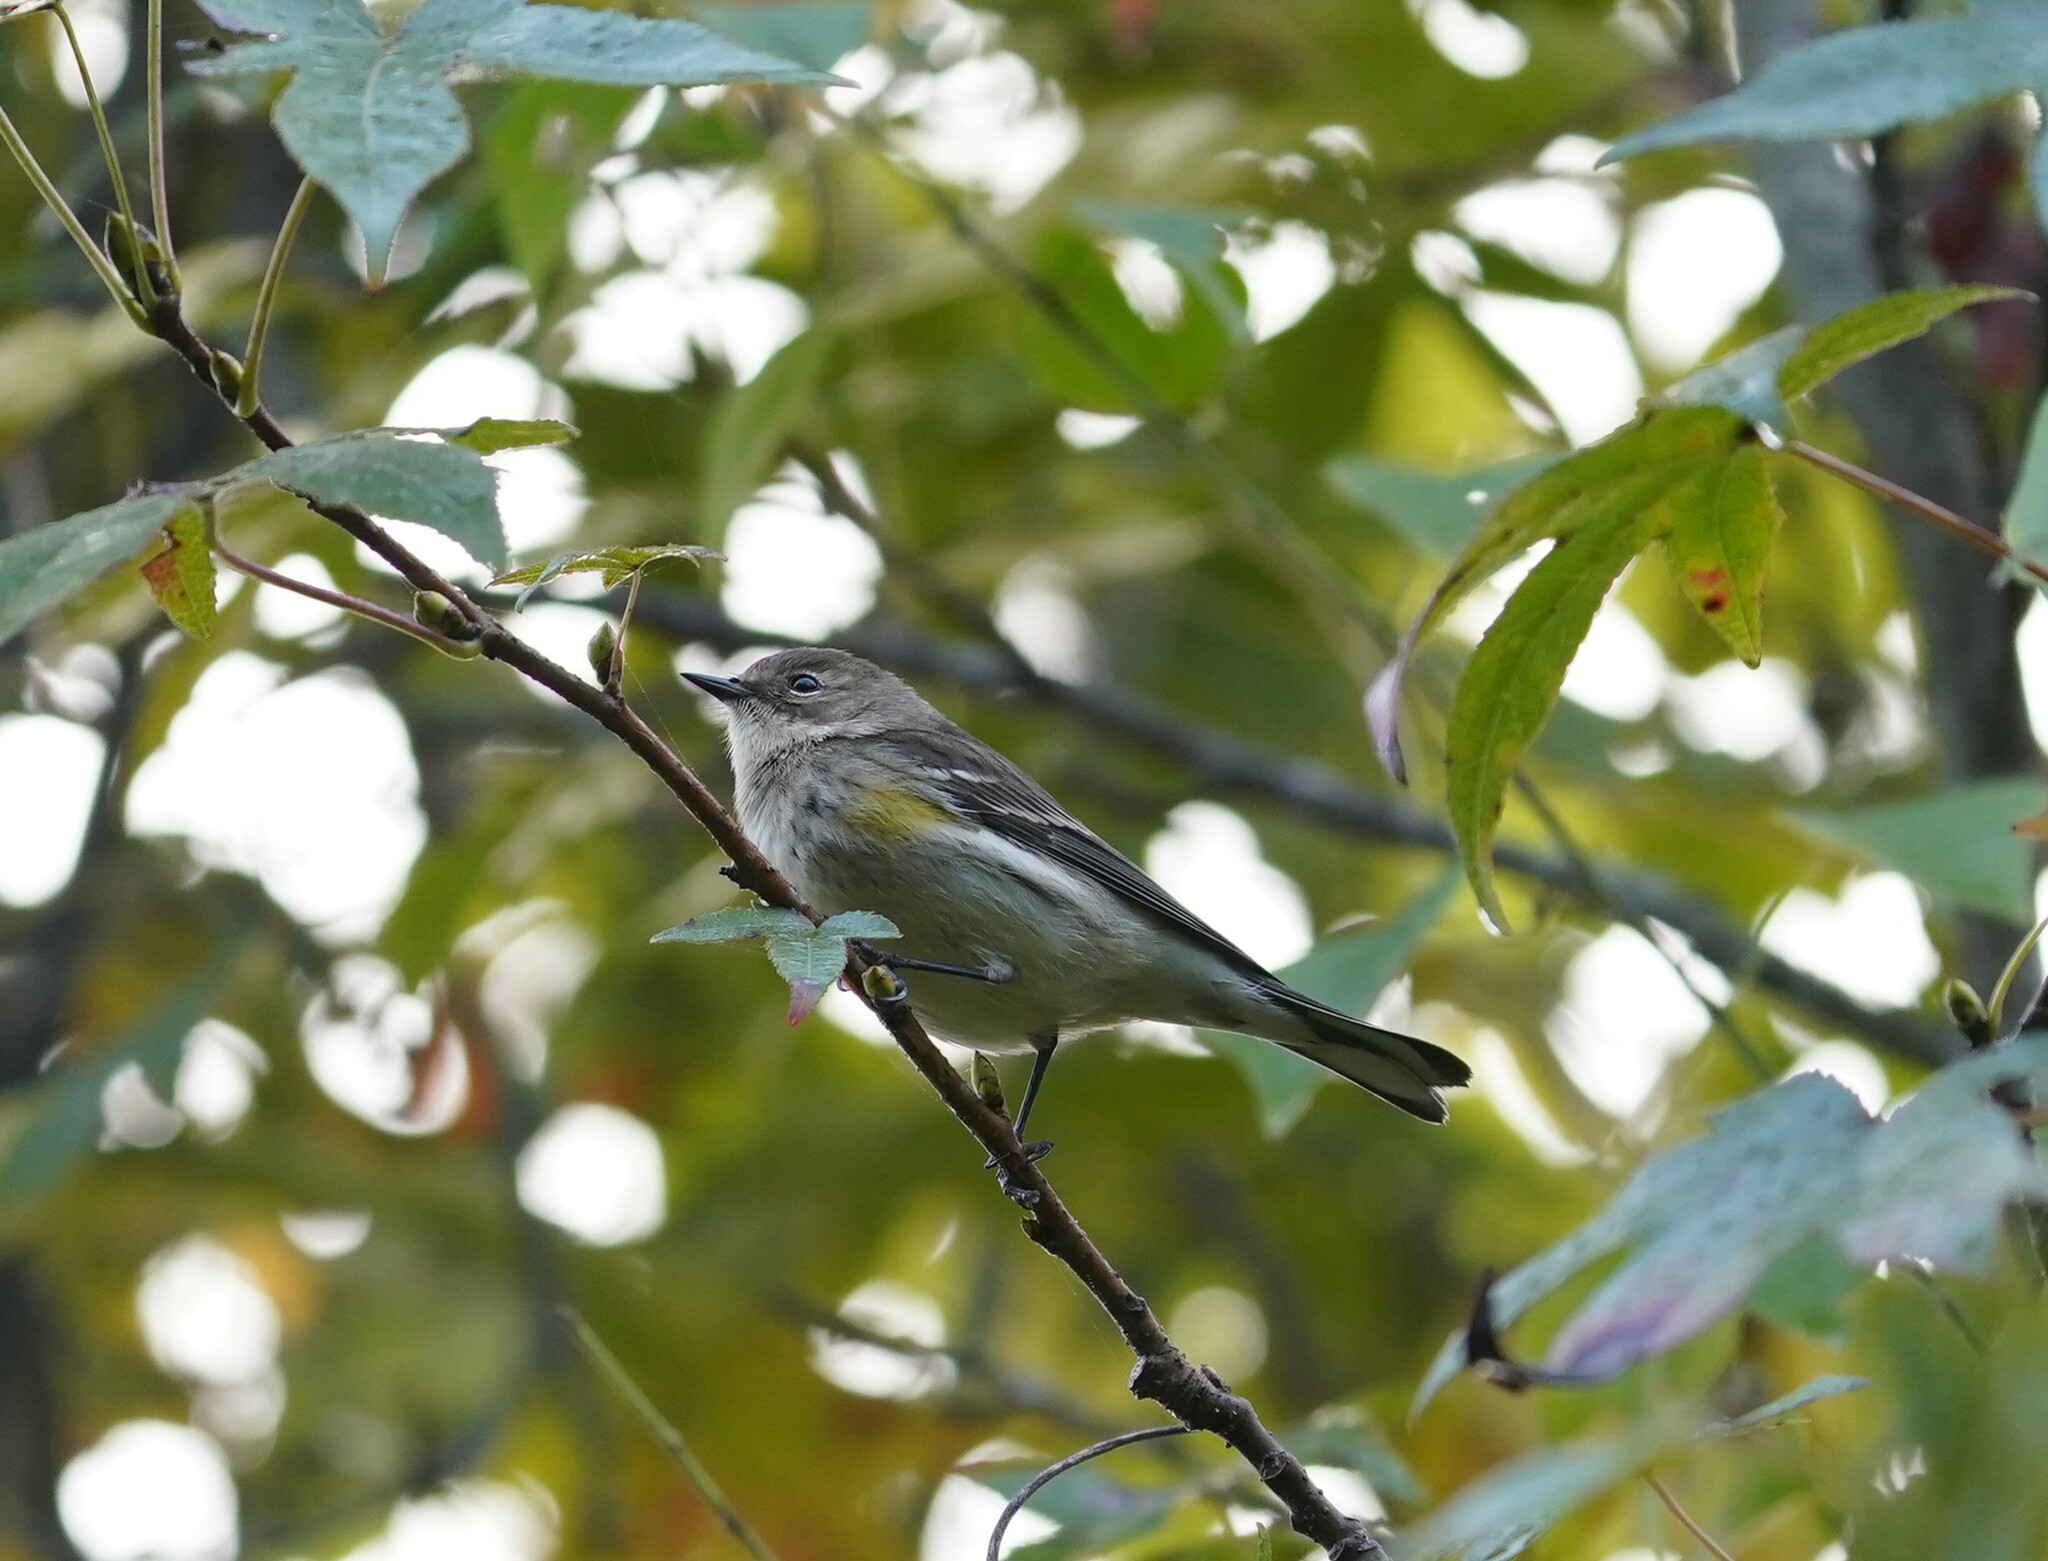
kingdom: Animalia
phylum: Chordata
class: Aves
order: Passeriformes
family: Parulidae
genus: Setophaga
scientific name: Setophaga coronata
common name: Myrtle warbler
